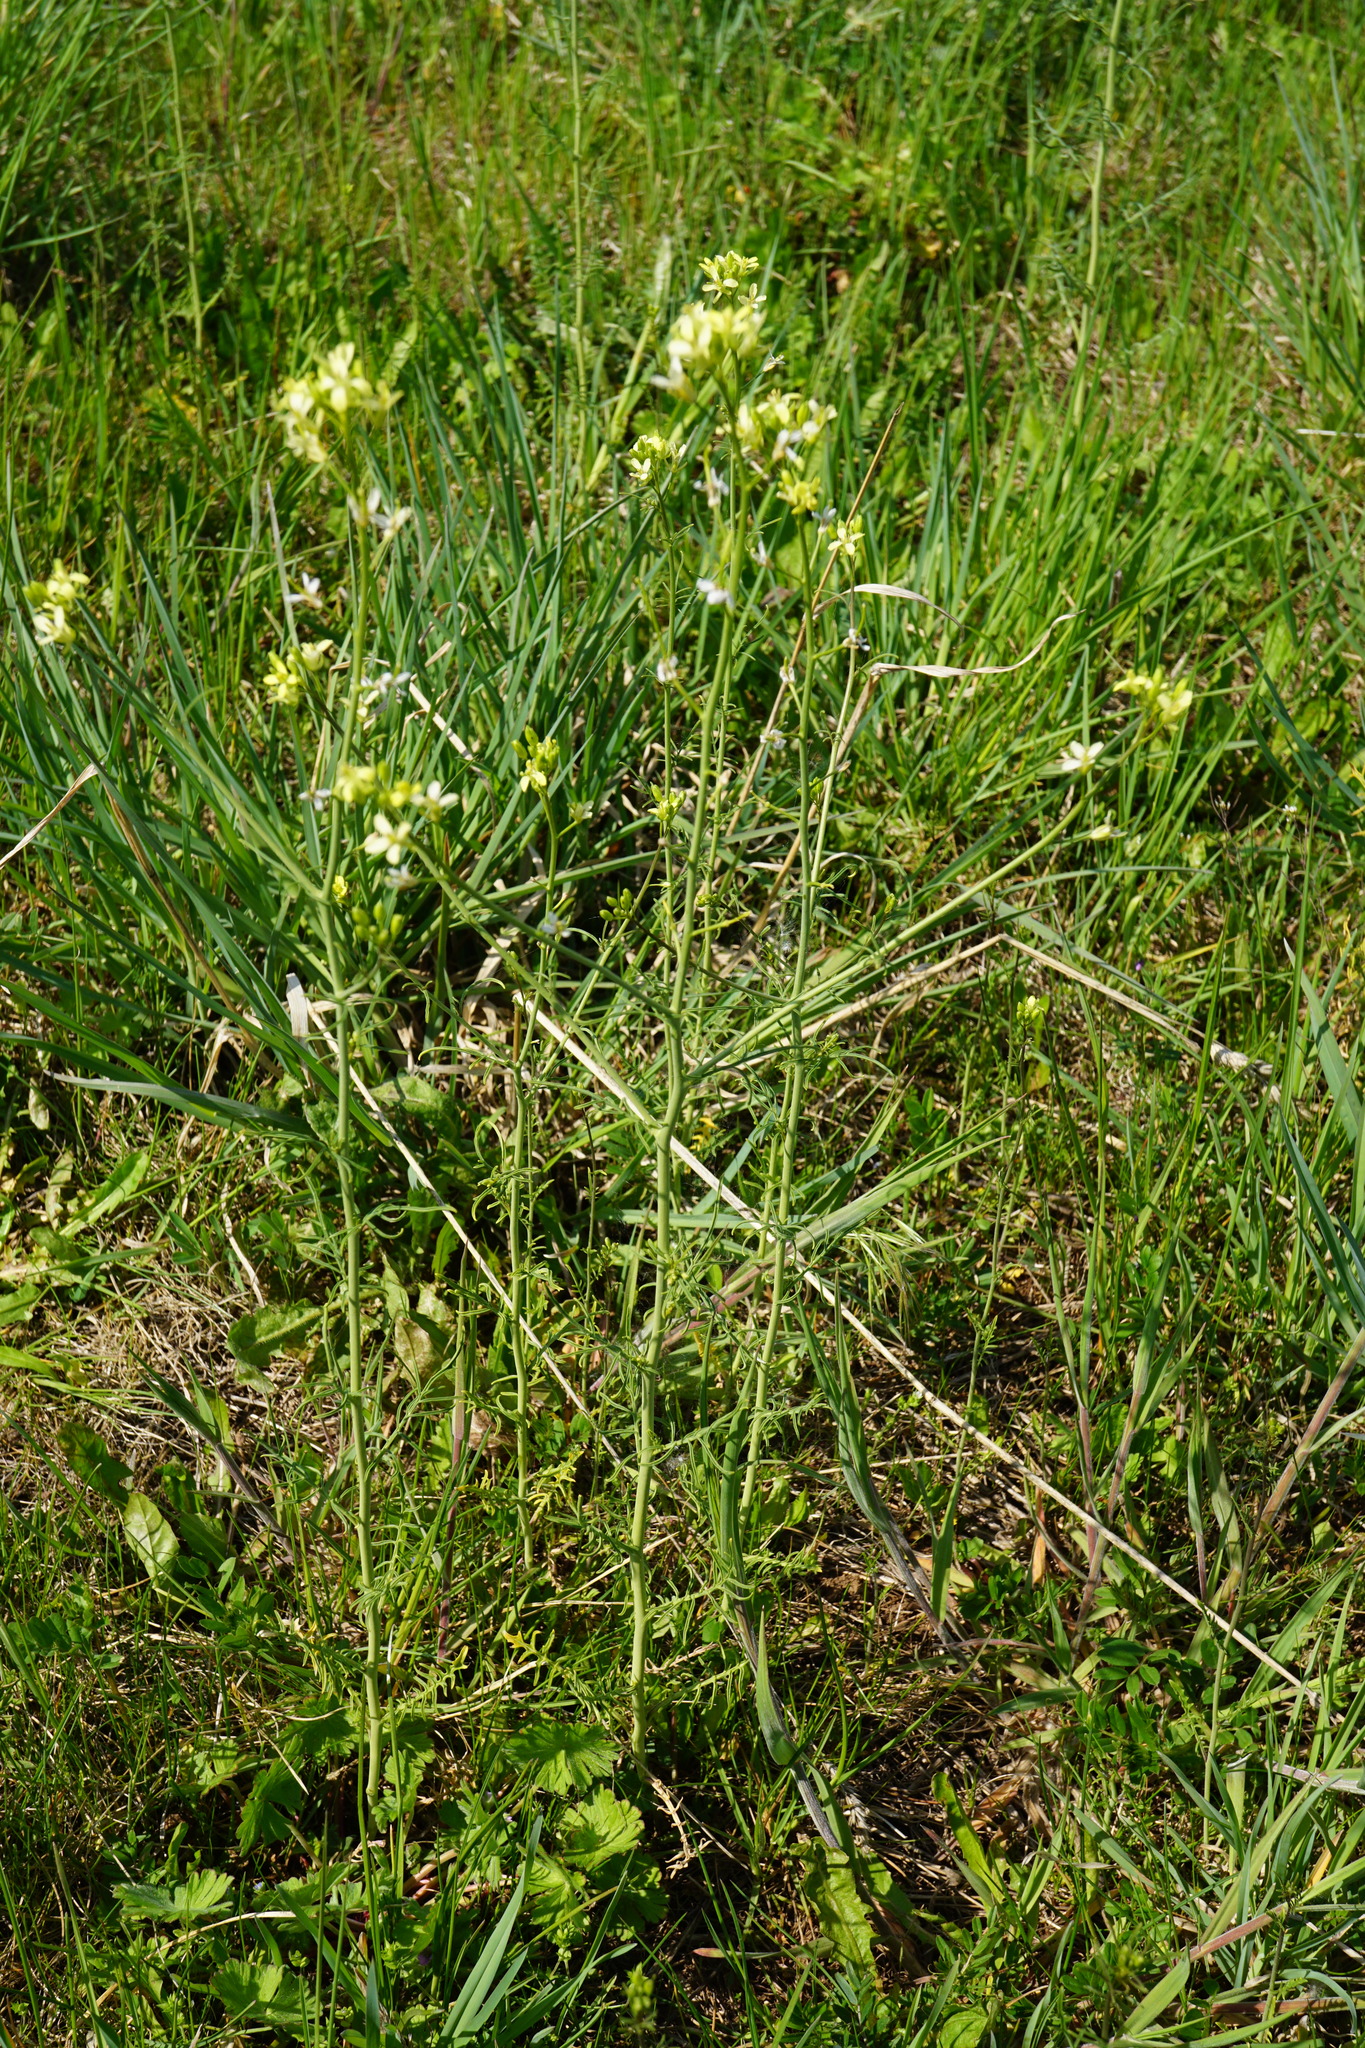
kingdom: Plantae
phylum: Tracheophyta
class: Magnoliopsida
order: Brassicales
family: Brassicaceae
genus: Sisymbrium
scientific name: Sisymbrium altissimum
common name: Tall rocket
